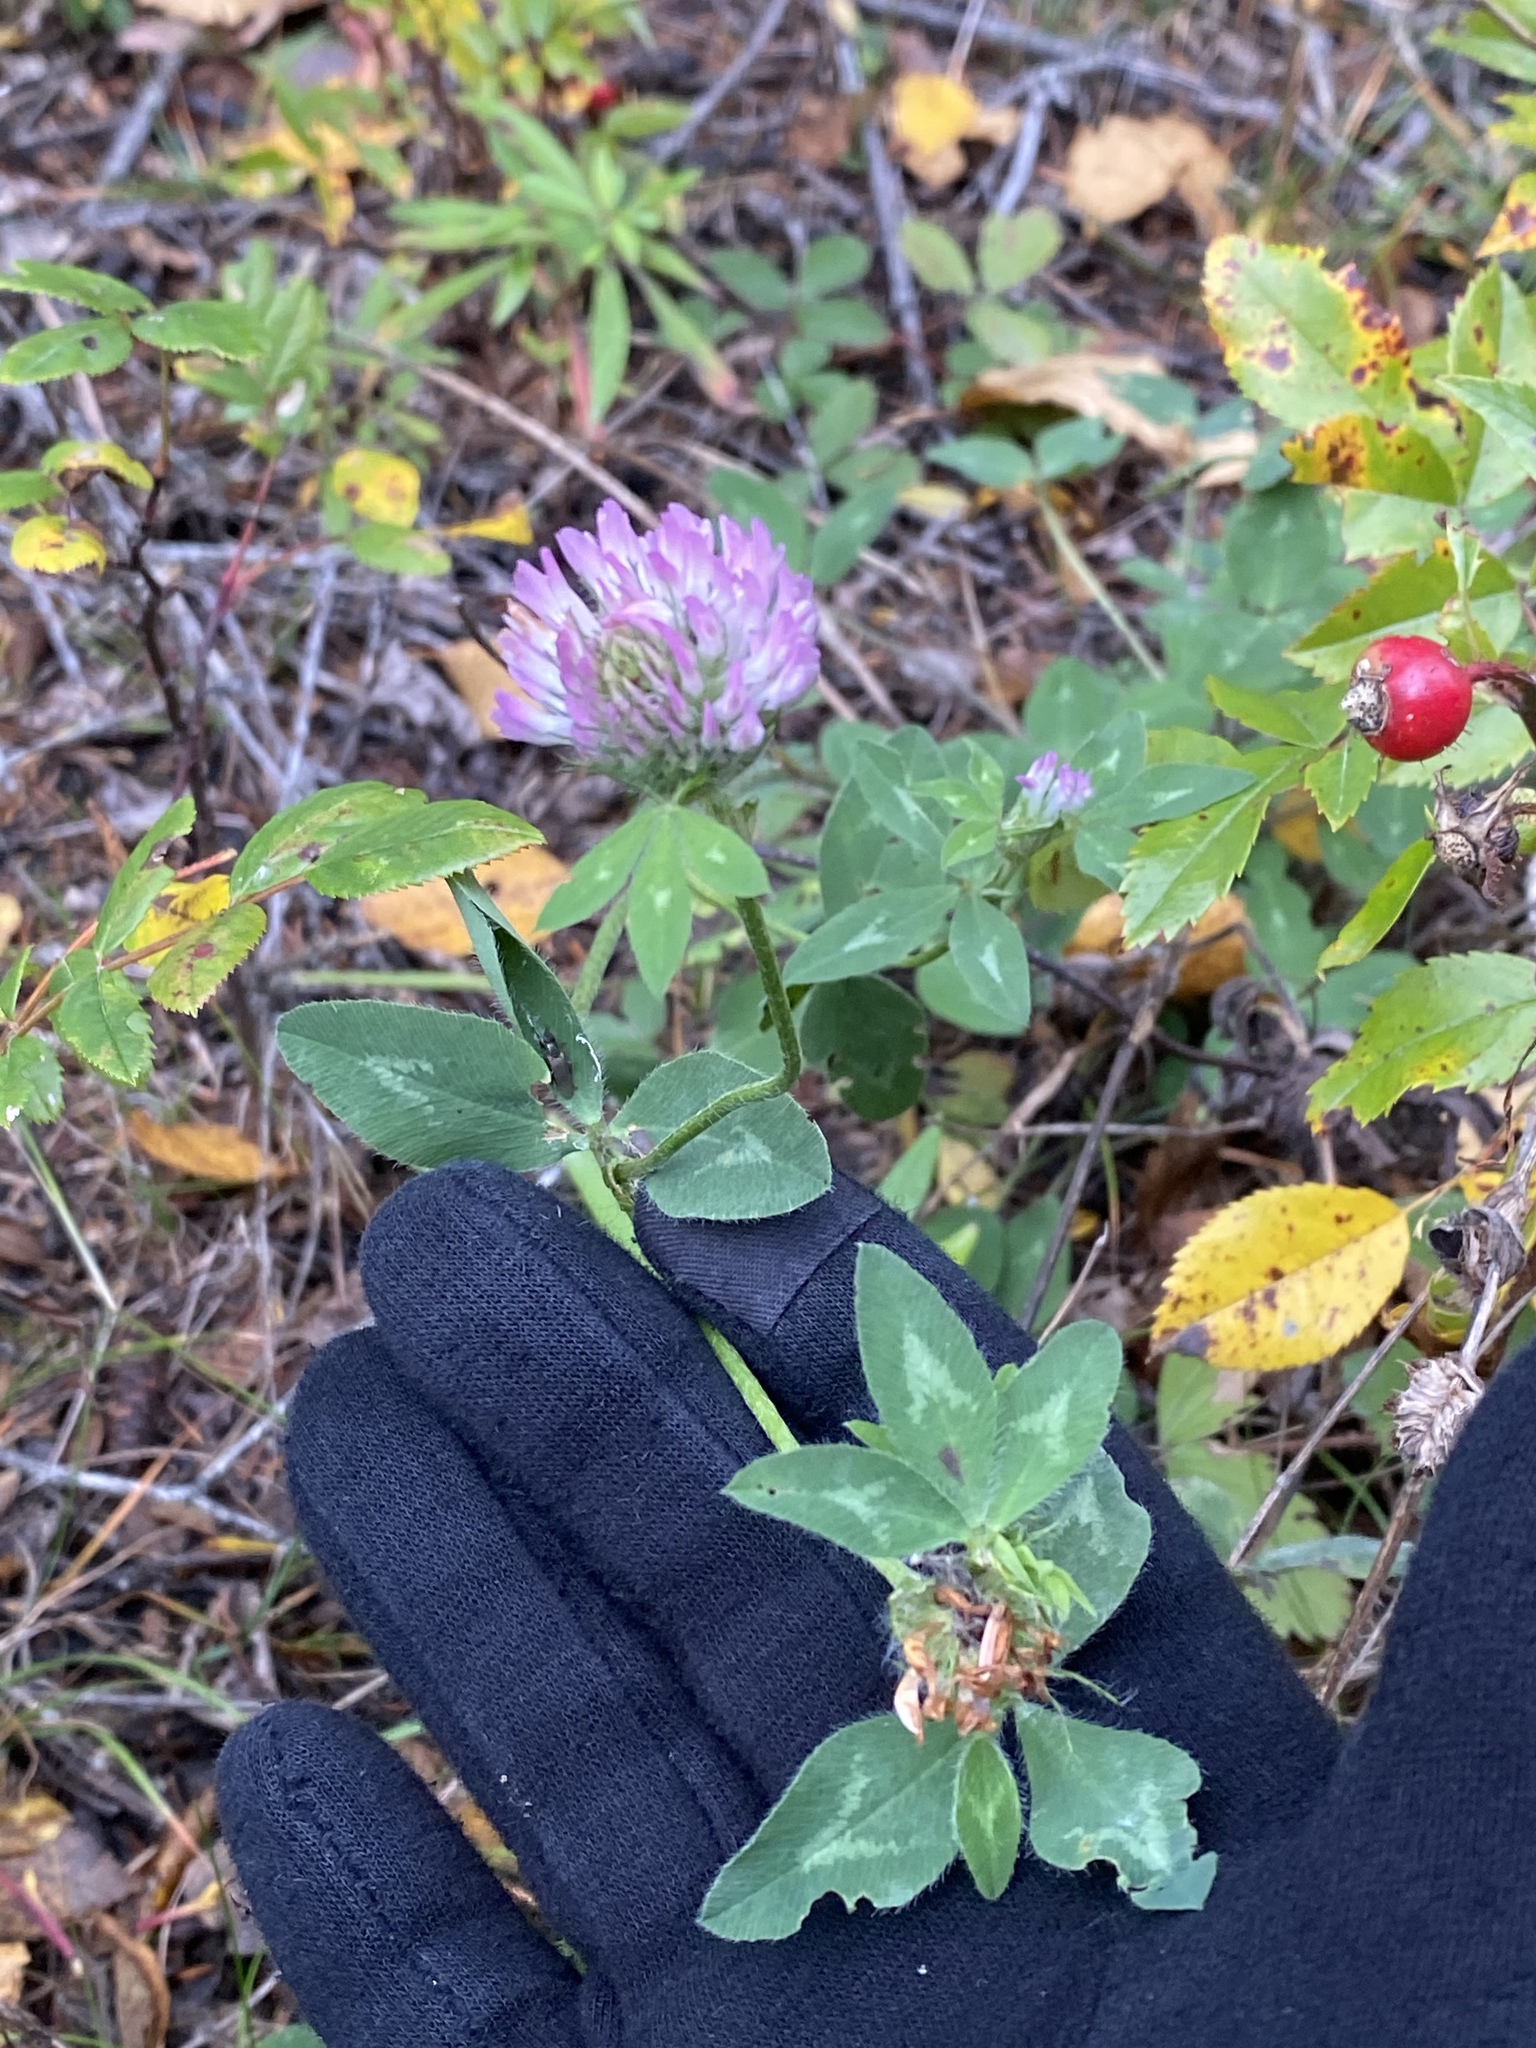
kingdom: Plantae
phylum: Tracheophyta
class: Magnoliopsida
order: Fabales
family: Fabaceae
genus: Trifolium
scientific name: Trifolium pratense
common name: Red clover
